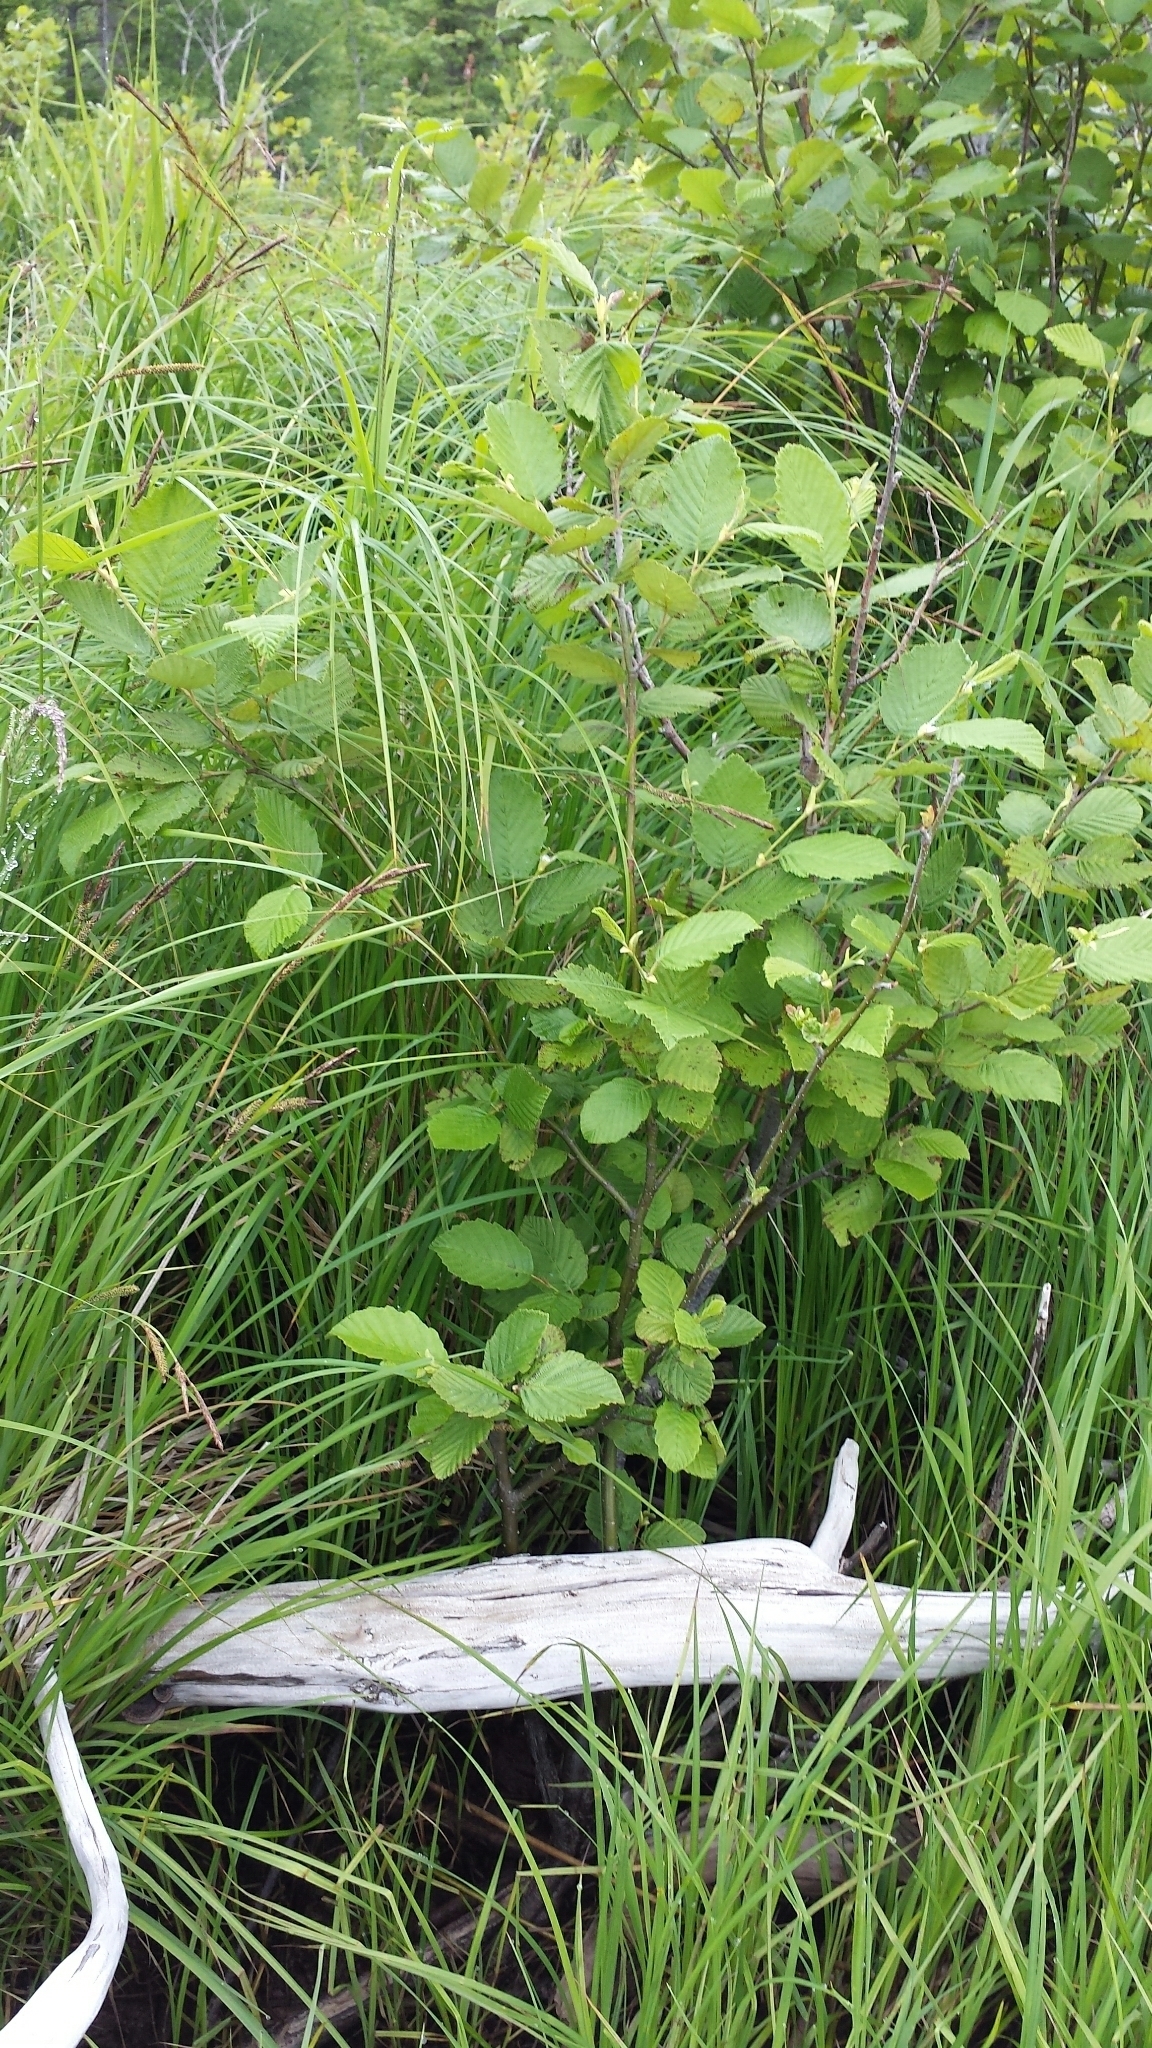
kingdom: Plantae
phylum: Tracheophyta
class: Magnoliopsida
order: Fagales
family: Betulaceae
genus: Alnus
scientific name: Alnus incana
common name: Grey alder
